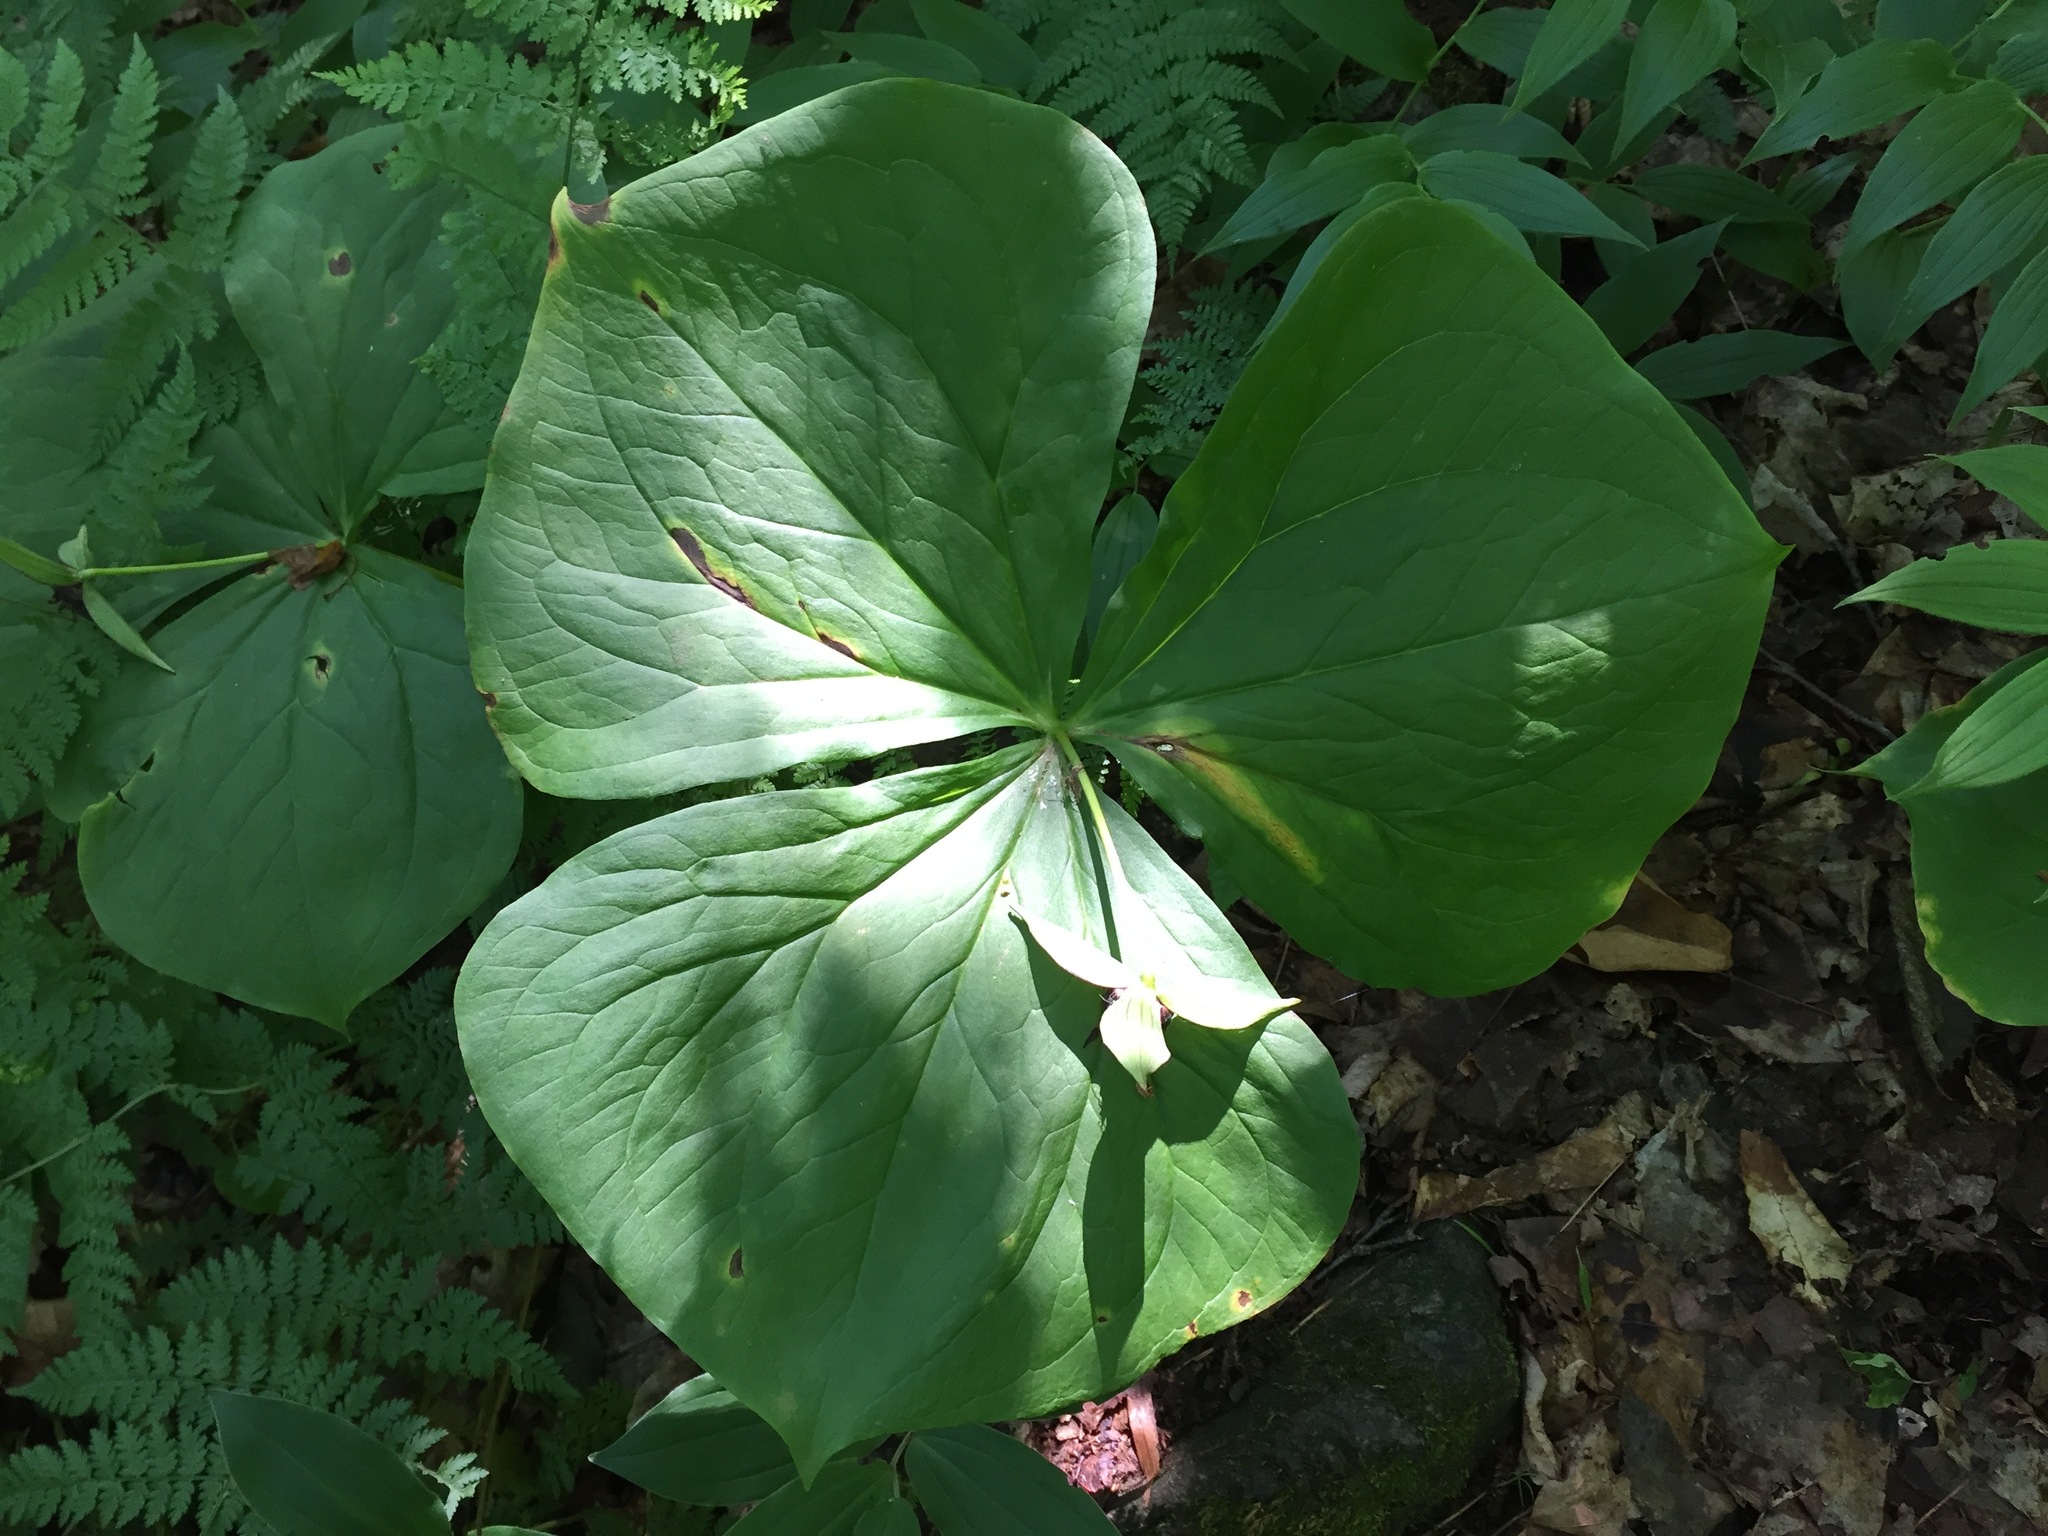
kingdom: Plantae
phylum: Tracheophyta
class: Liliopsida
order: Liliales
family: Melanthiaceae
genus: Trillium
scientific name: Trillium erectum
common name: Purple trillium
